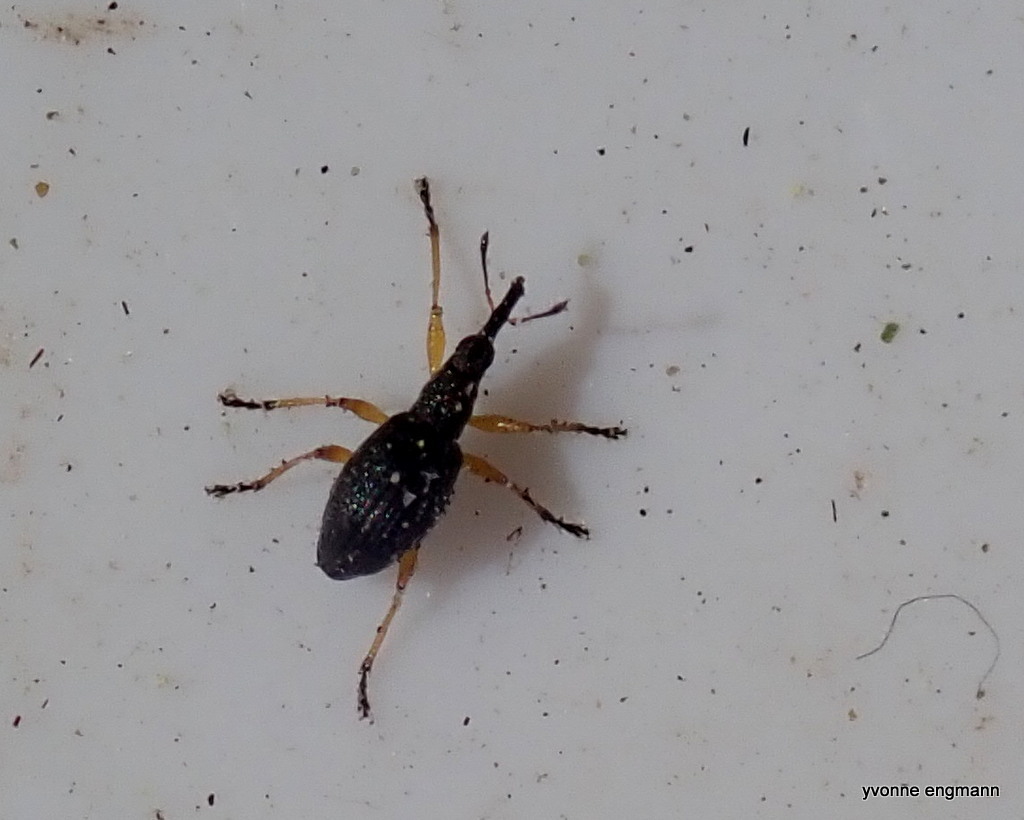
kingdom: Animalia
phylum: Arthropoda
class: Insecta
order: Coleoptera
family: Apionidae
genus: Protapion
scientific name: Protapion fulvipes
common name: White clover seed weevil
